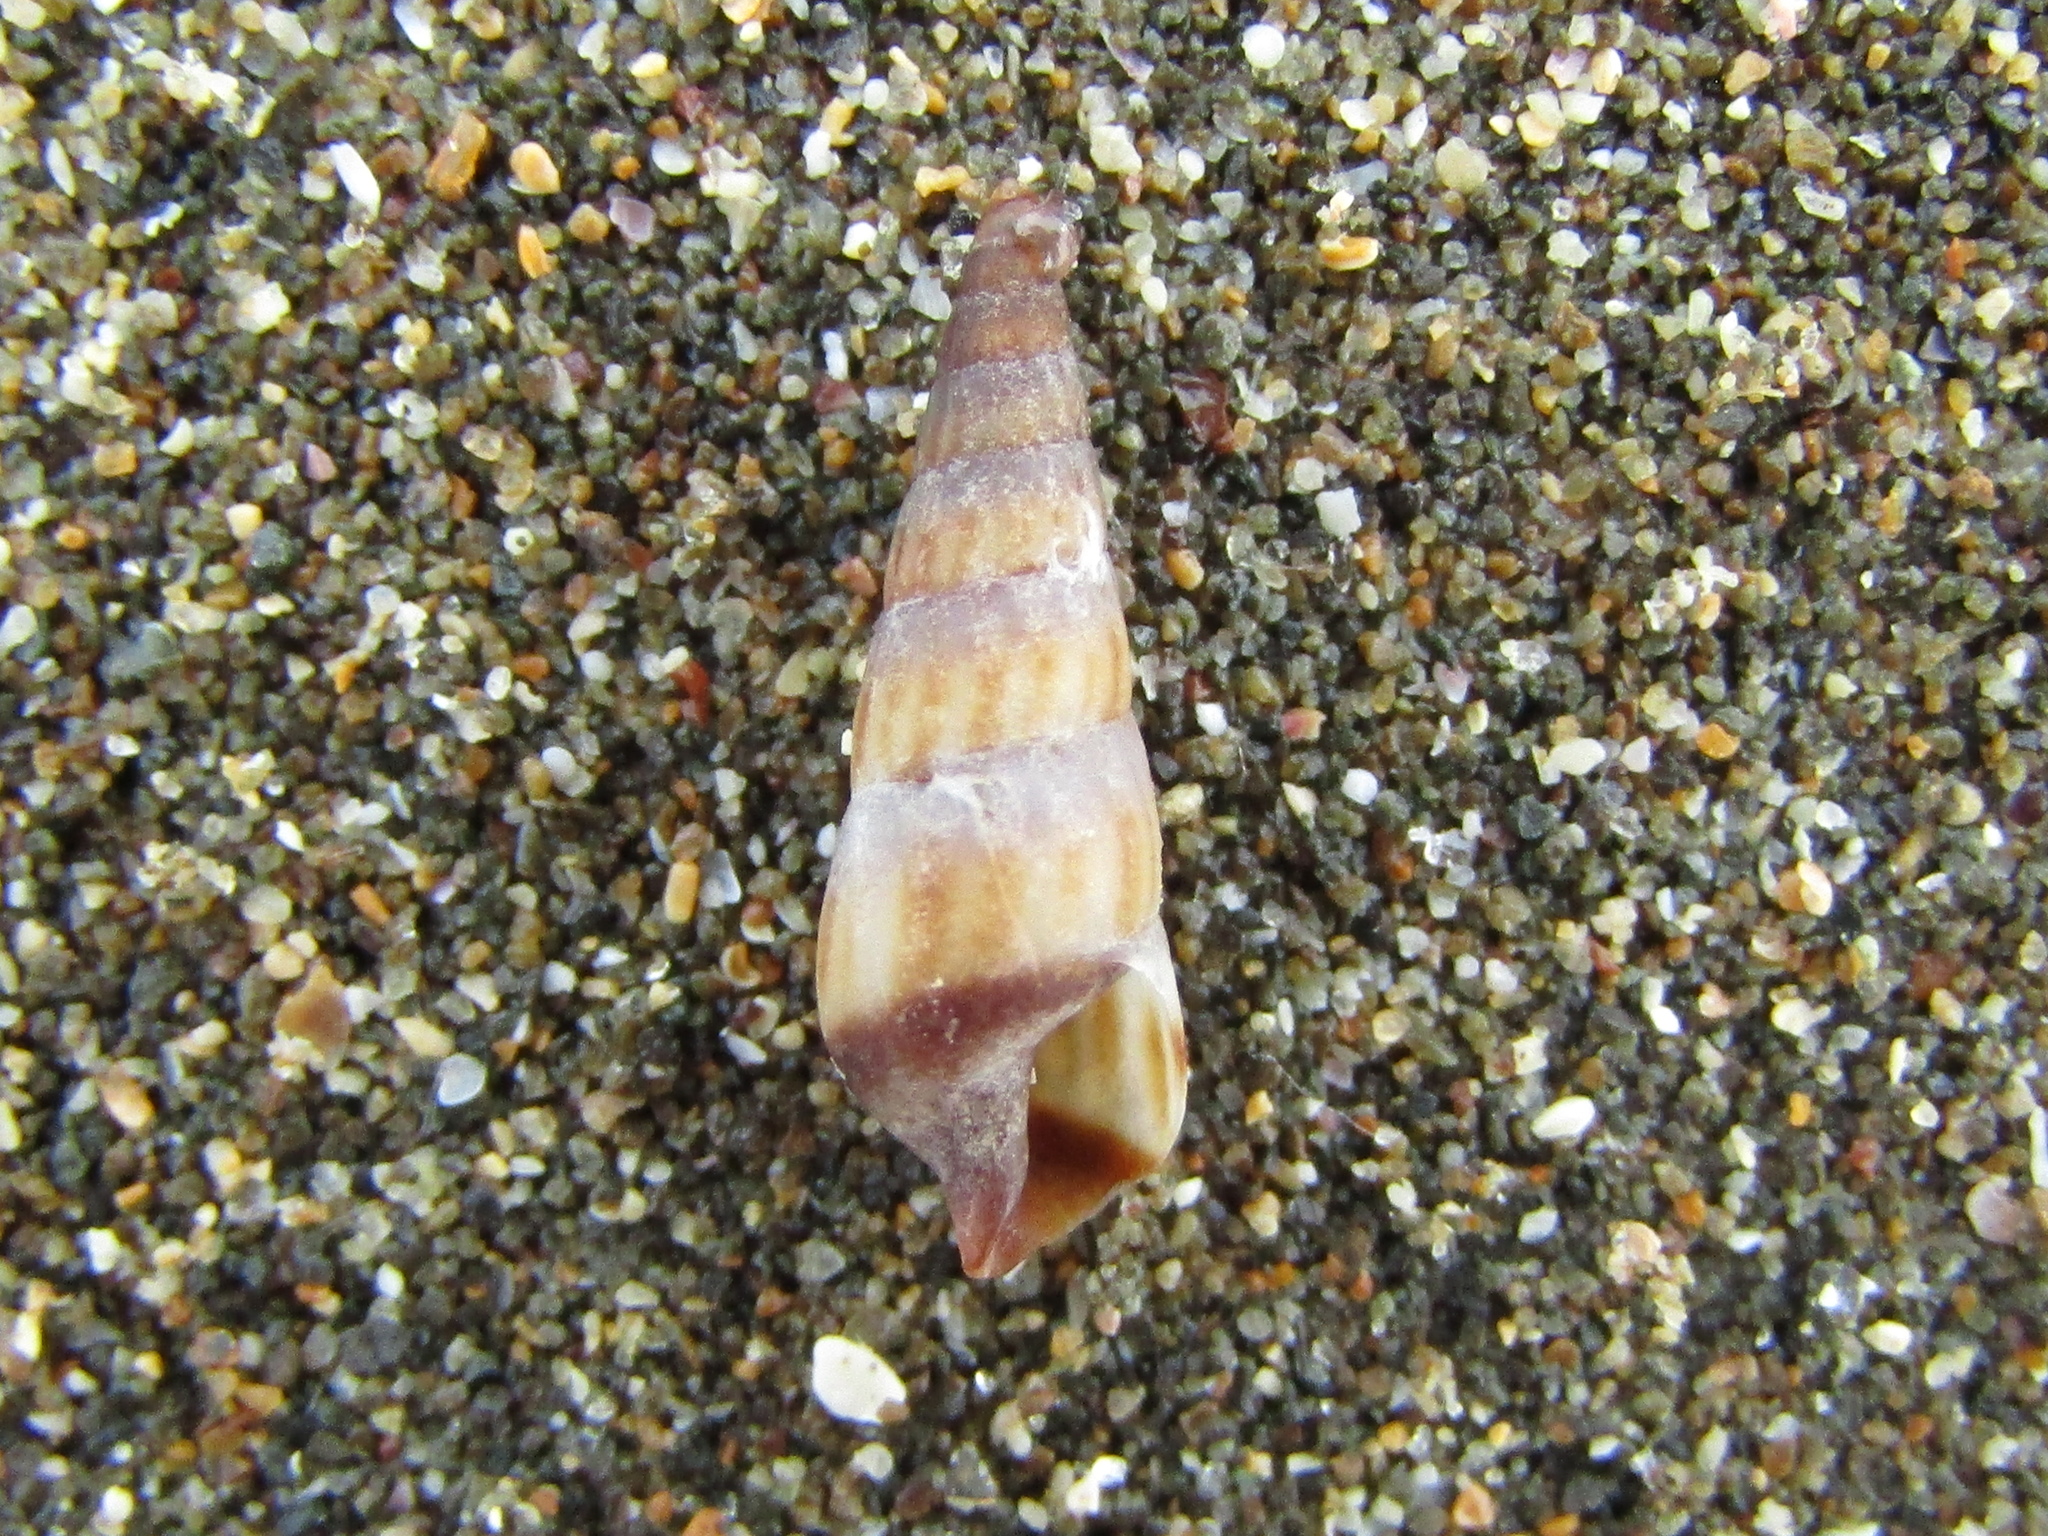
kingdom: Animalia
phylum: Mollusca
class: Gastropoda
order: Neogastropoda
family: Terebridae
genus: Duplicaria
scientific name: Duplicaria tristis
